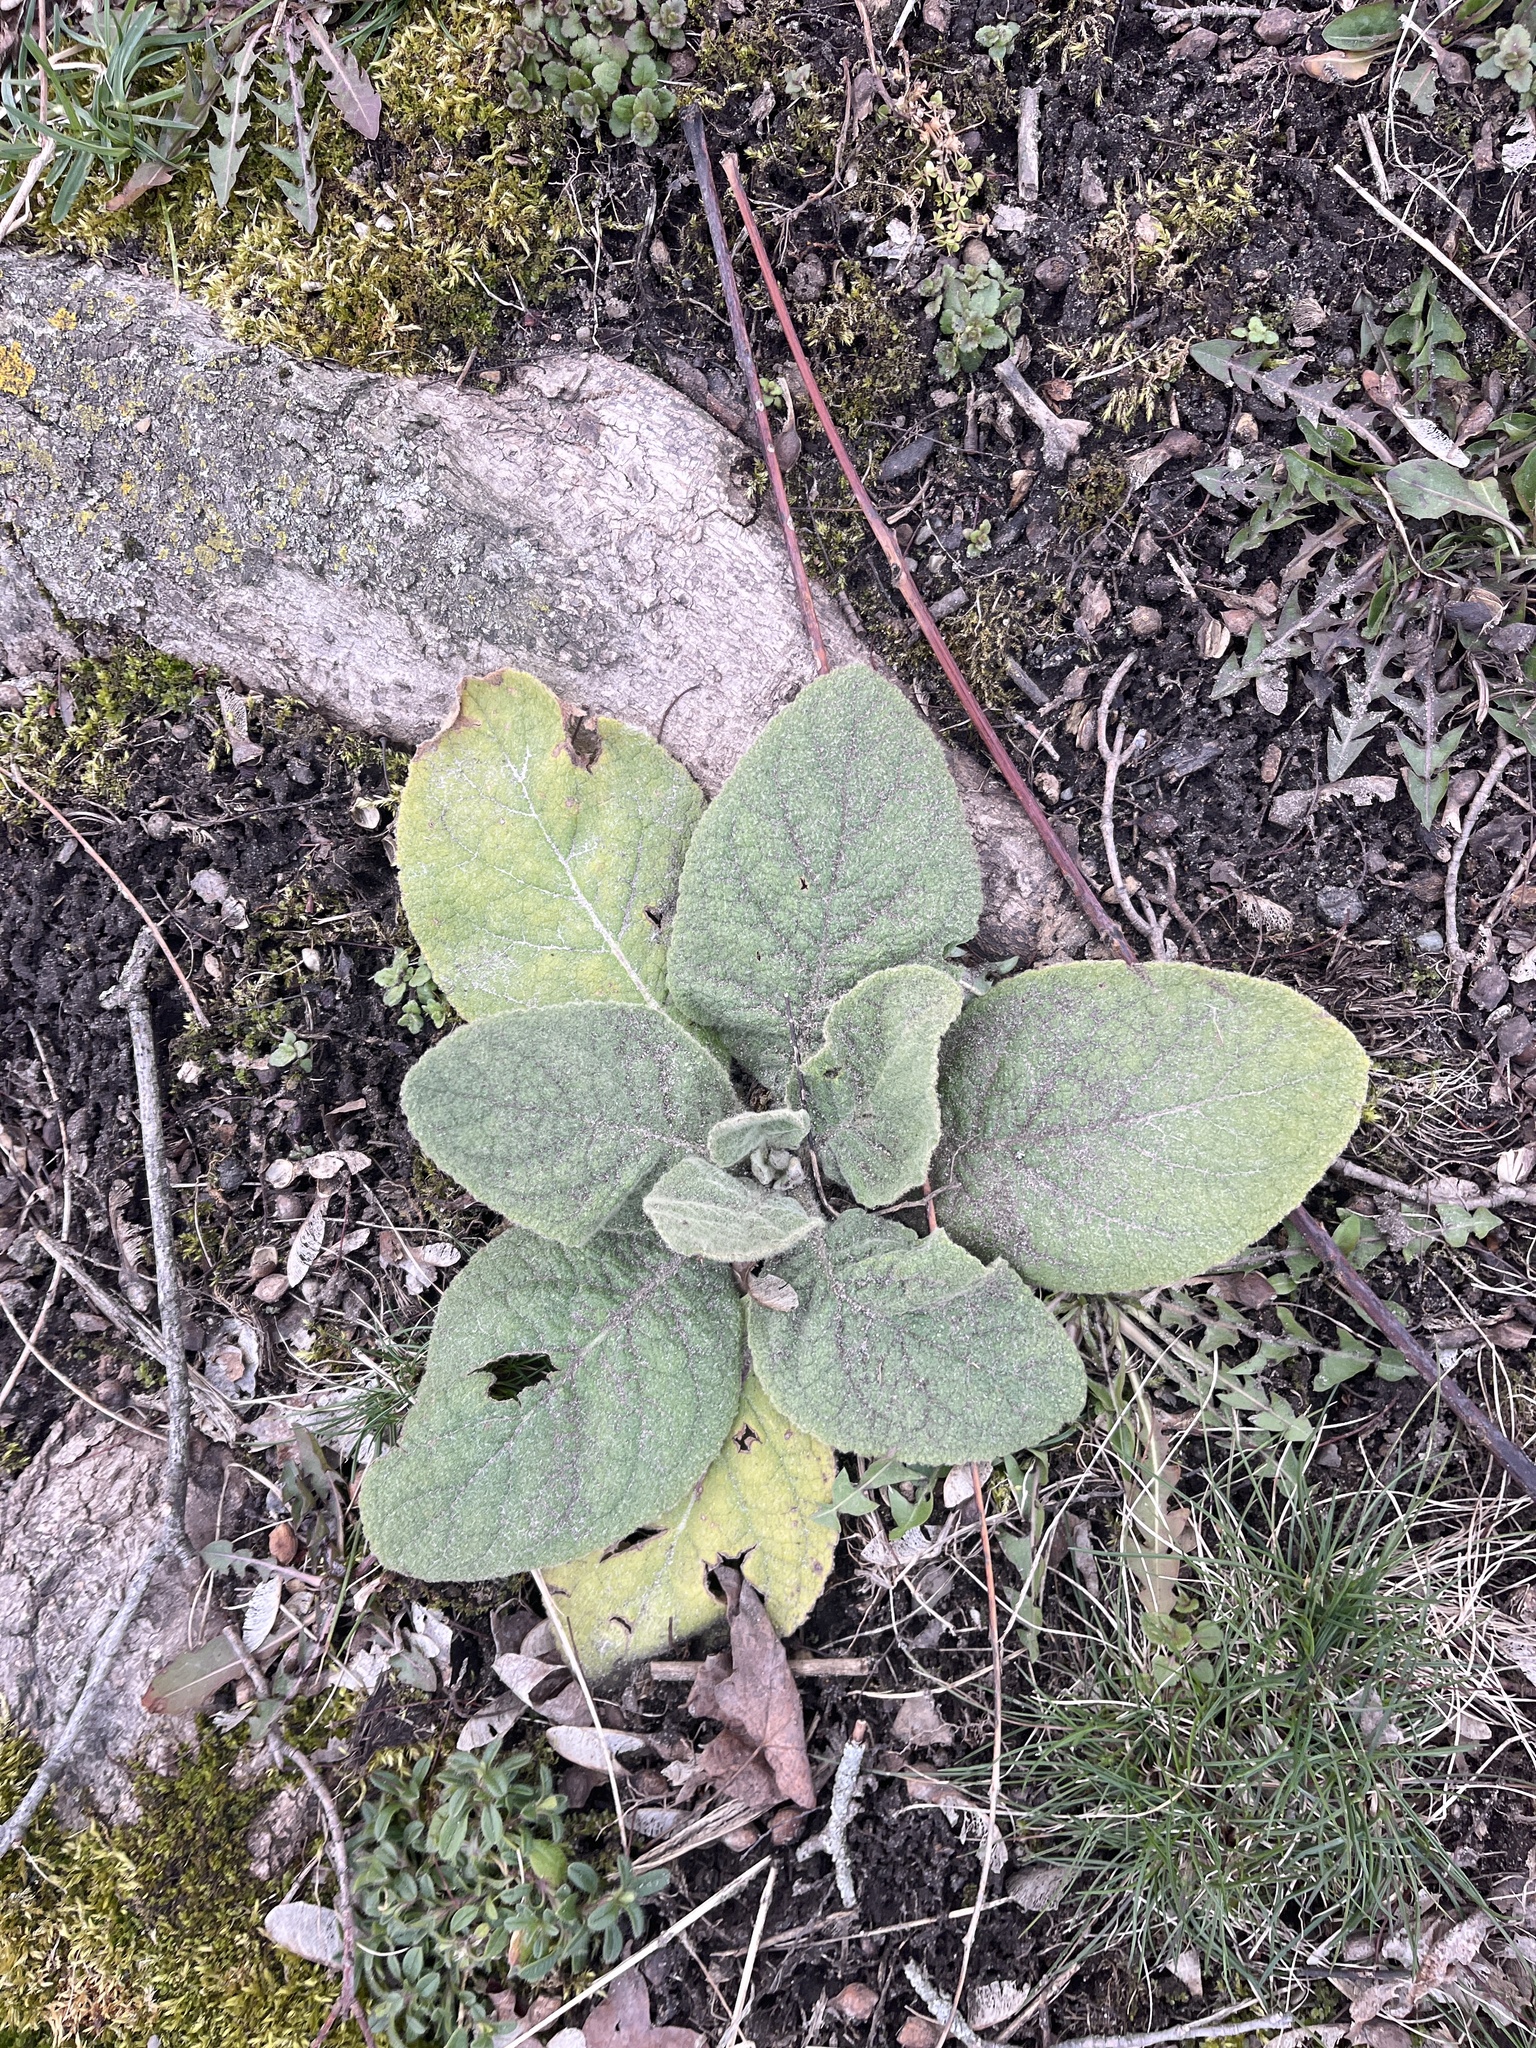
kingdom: Plantae
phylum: Tracheophyta
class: Magnoliopsida
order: Lamiales
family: Scrophulariaceae
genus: Verbascum
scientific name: Verbascum thapsus
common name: Common mullein
